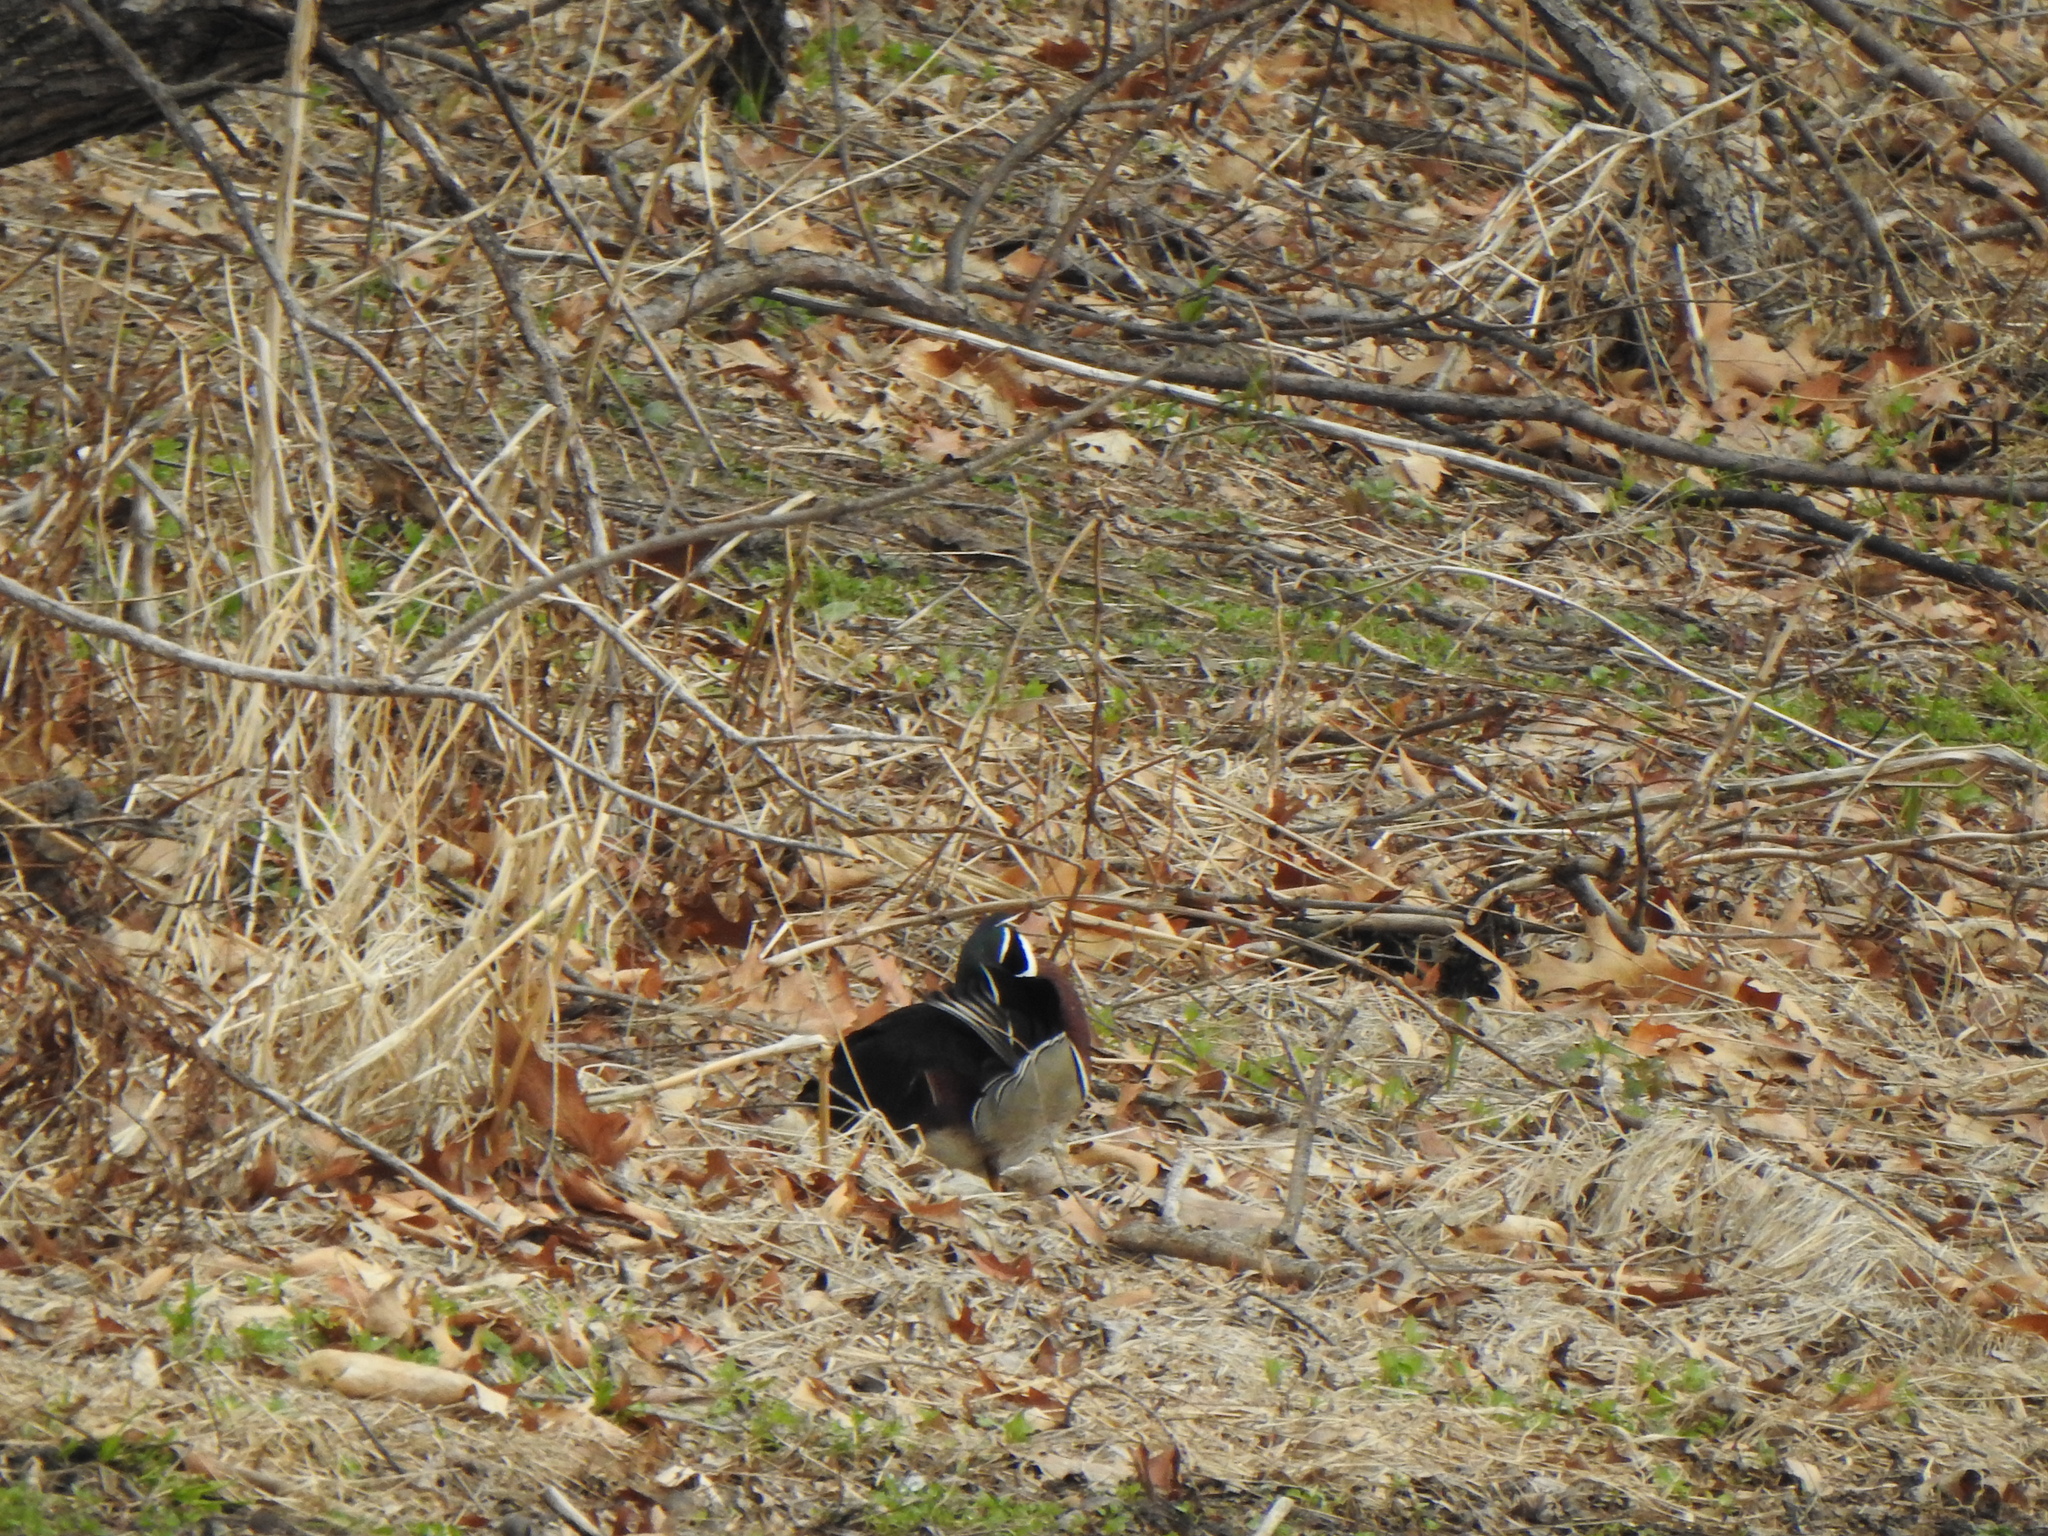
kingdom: Animalia
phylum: Chordata
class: Aves
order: Anseriformes
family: Anatidae
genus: Aix
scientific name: Aix sponsa
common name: Wood duck
